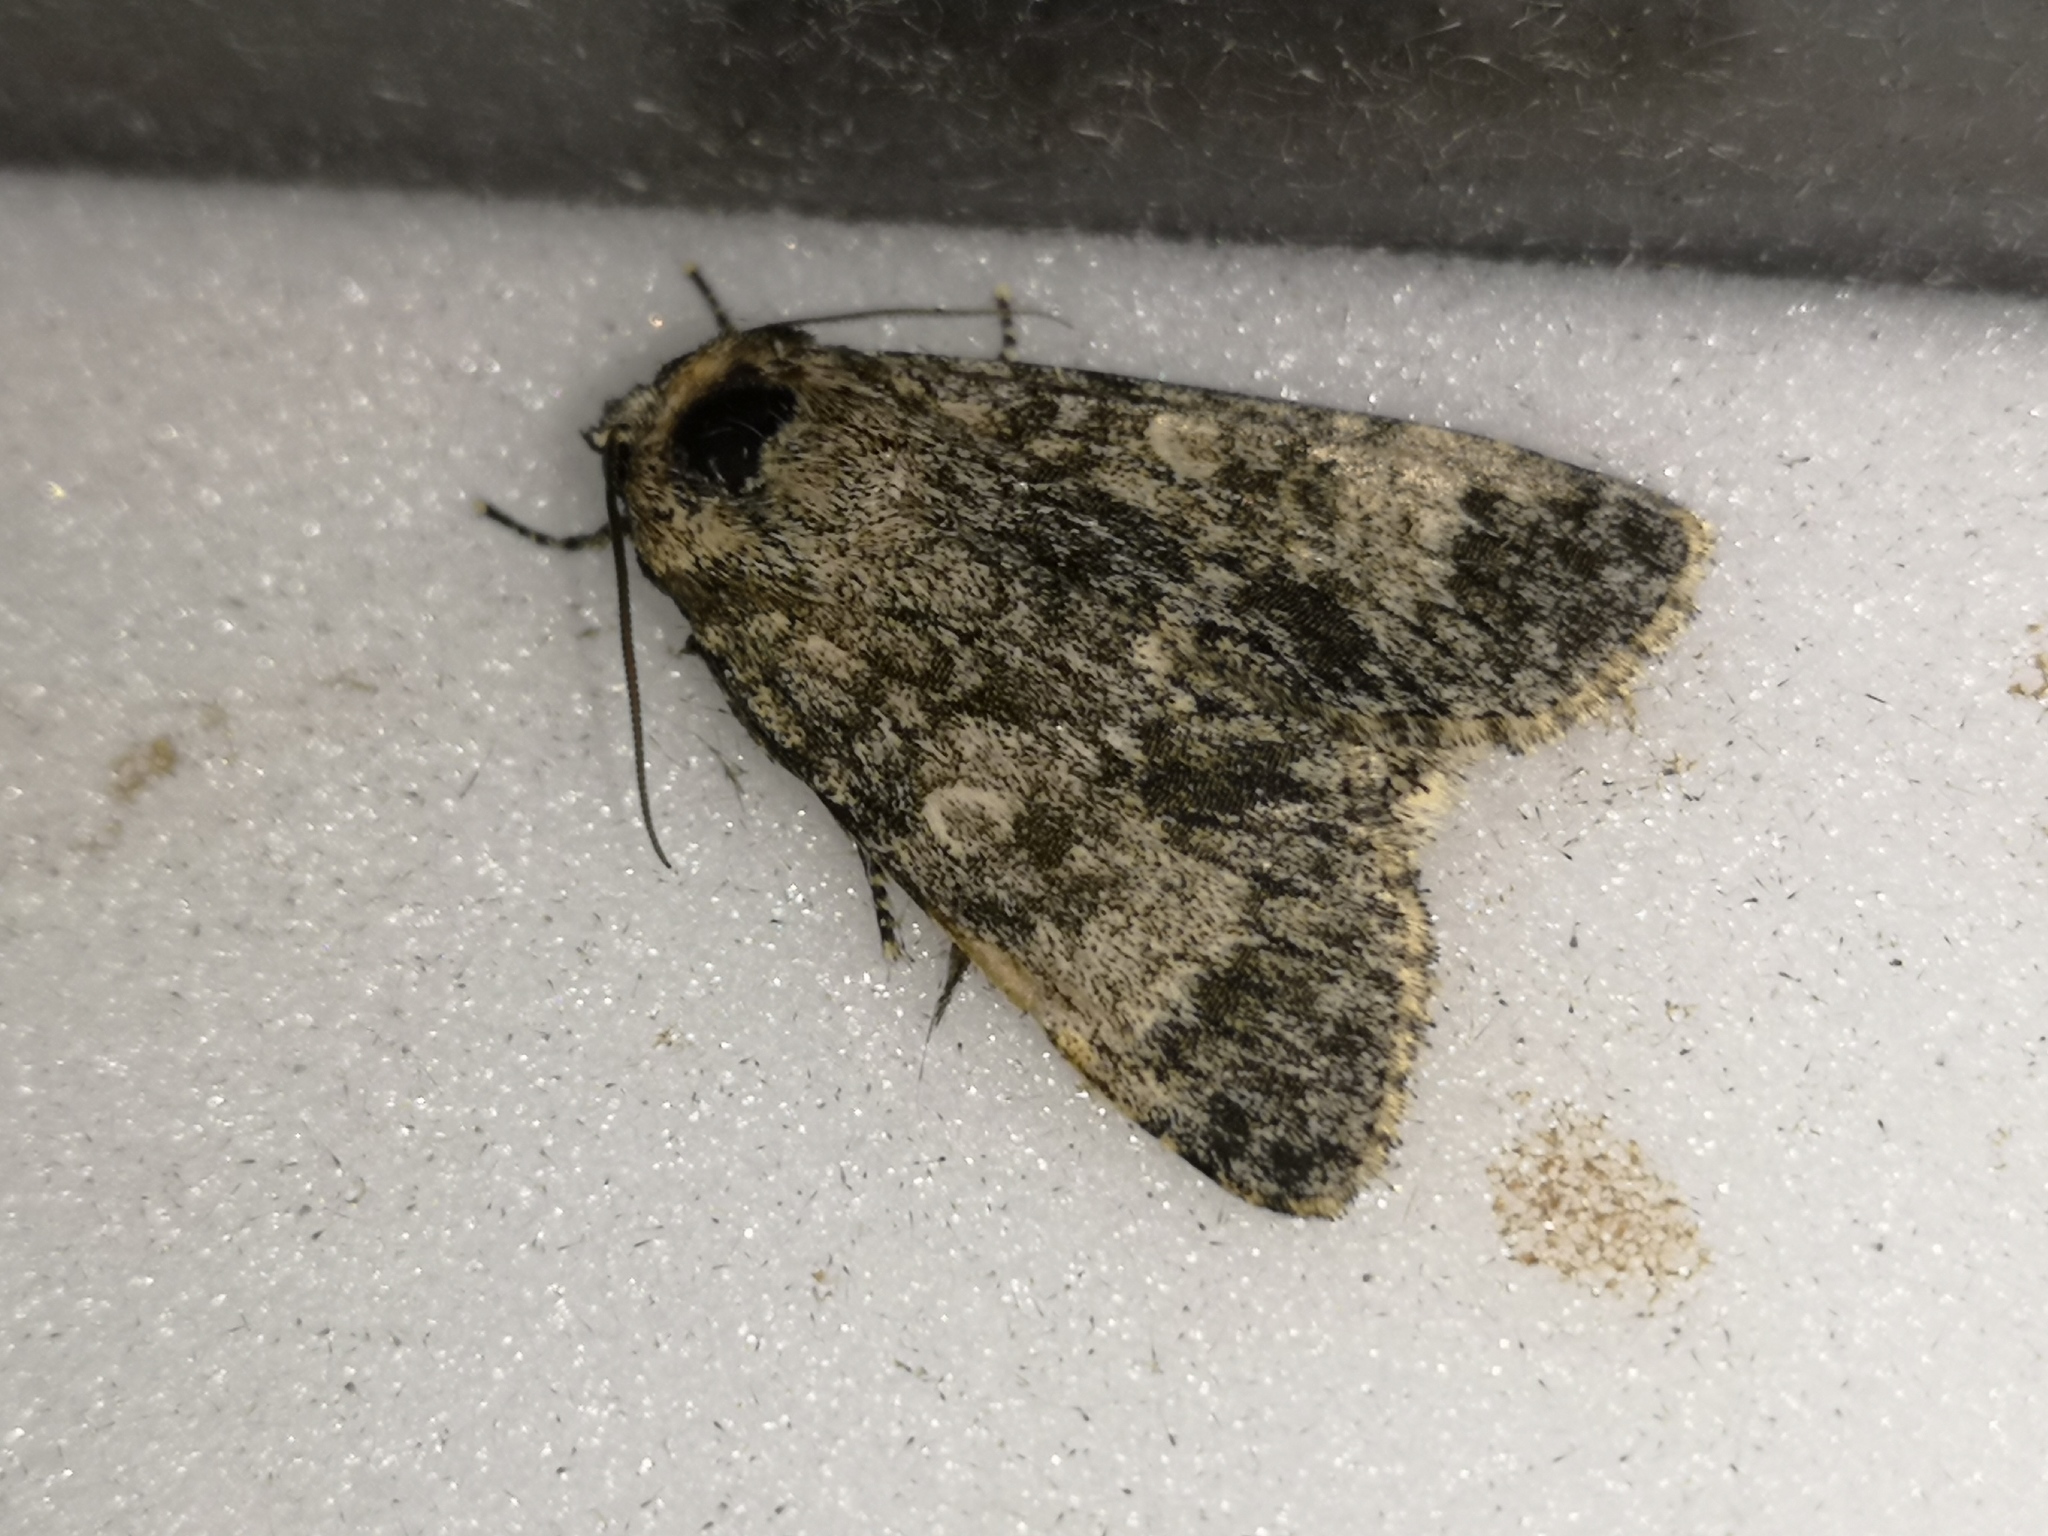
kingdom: Animalia
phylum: Arthropoda
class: Insecta
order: Lepidoptera
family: Noctuidae
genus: Acronicta
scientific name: Acronicta megacephala
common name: Poplar grey
